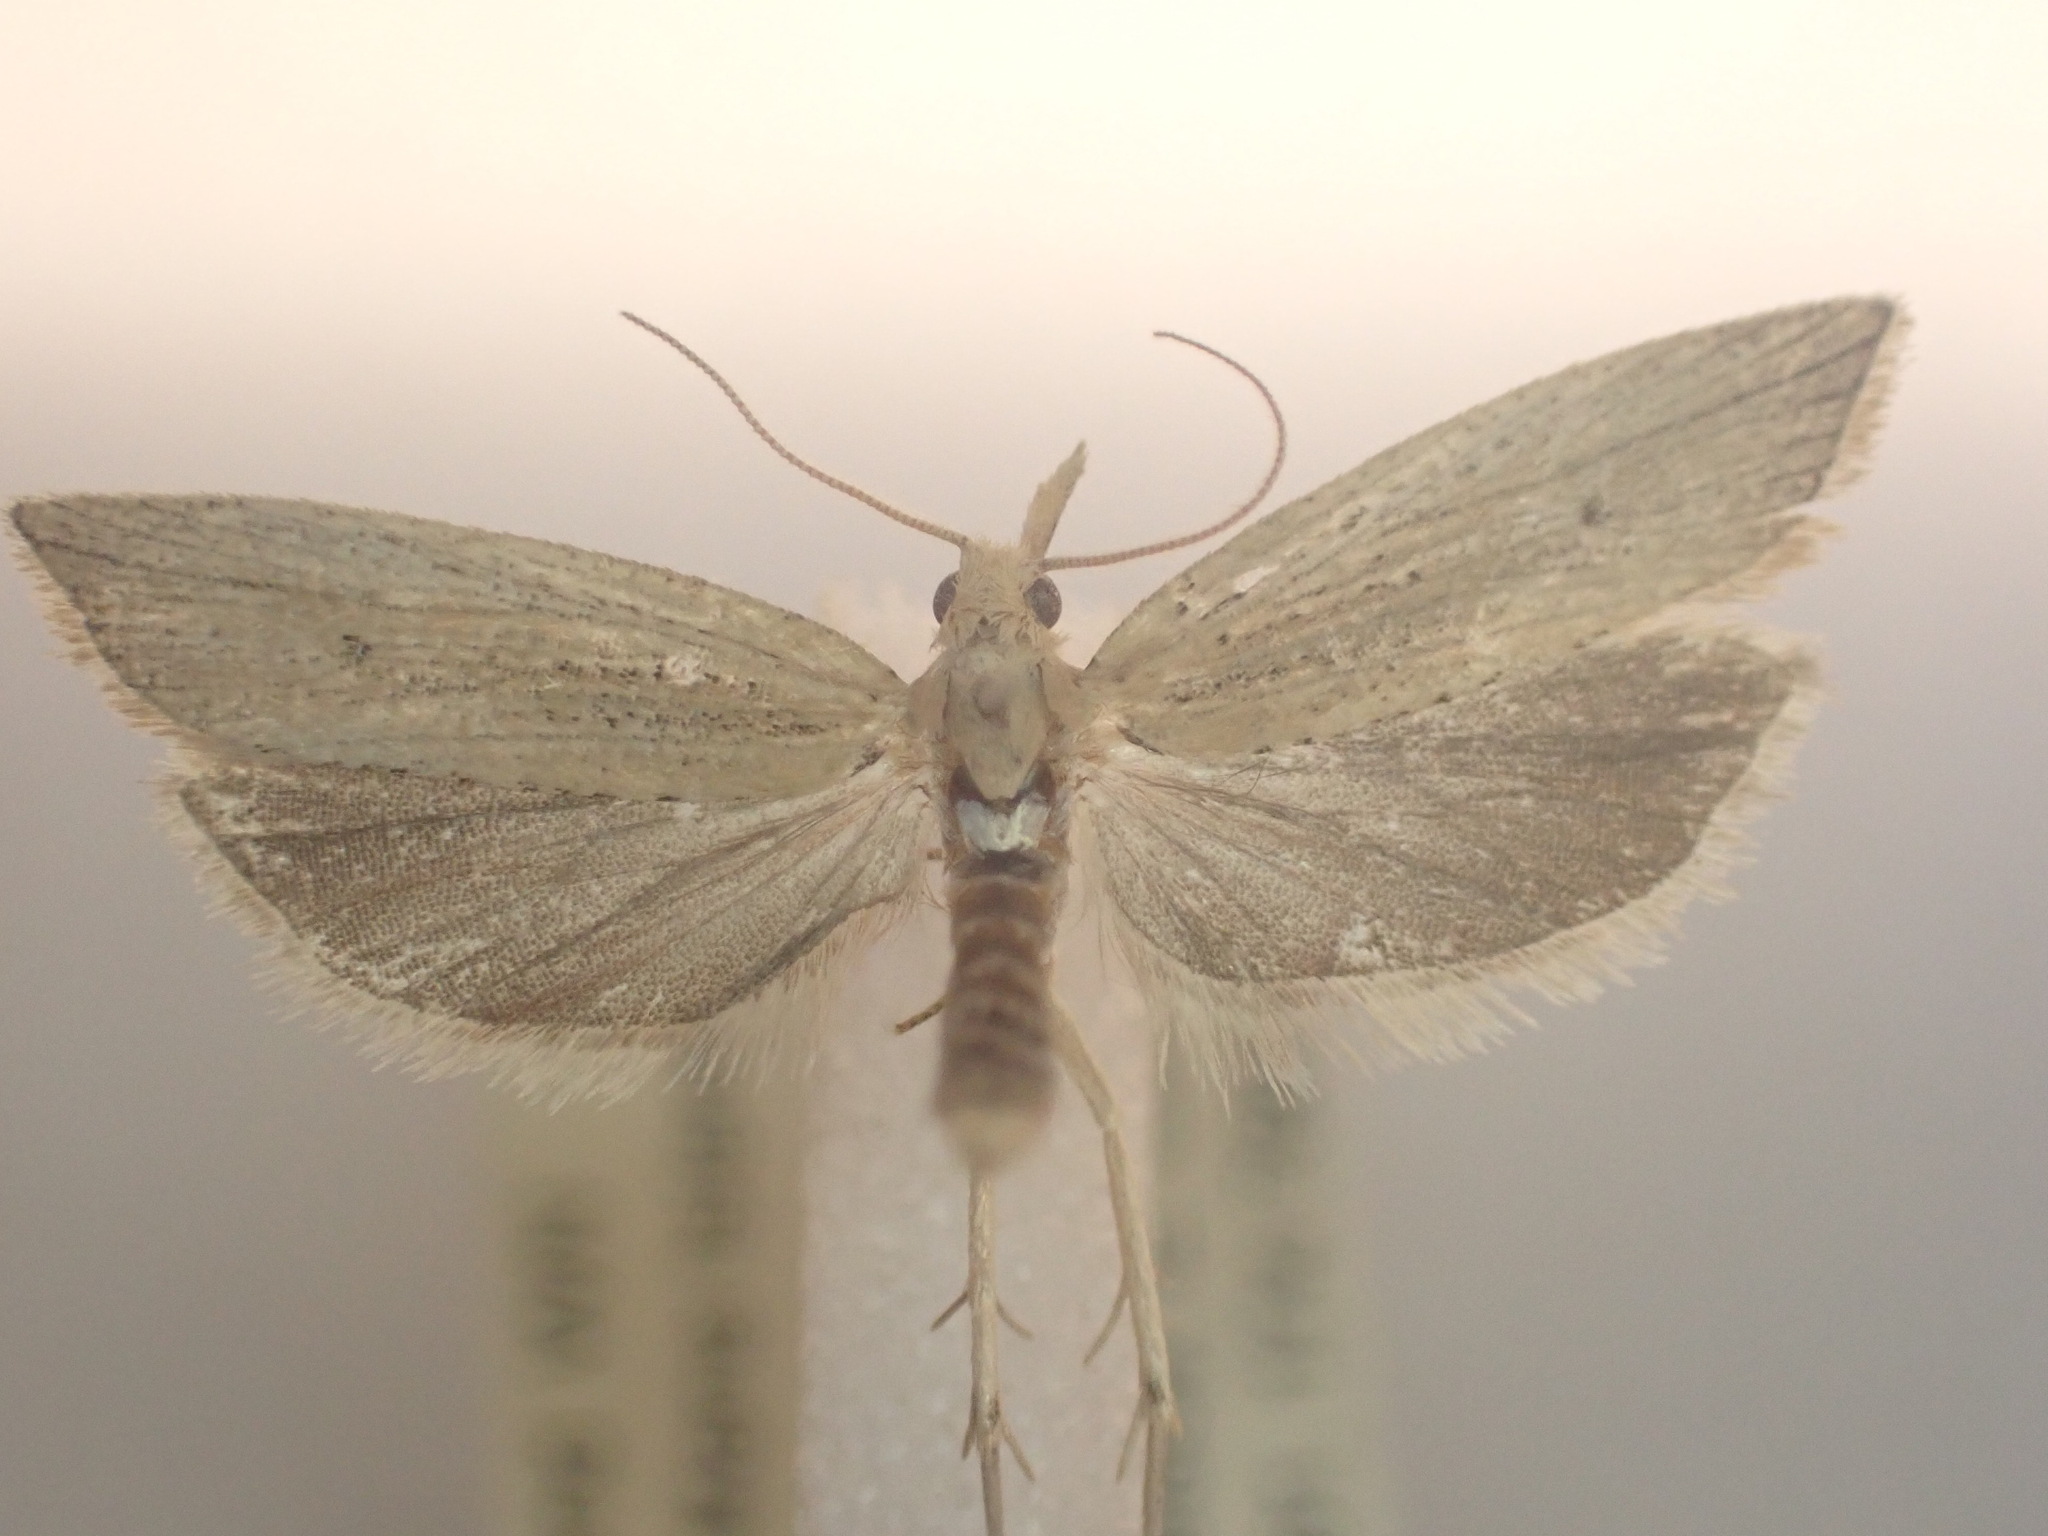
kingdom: Animalia
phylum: Arthropoda
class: Insecta
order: Lepidoptera
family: Tortricidae
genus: Bactra
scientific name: Bactra noteraula
